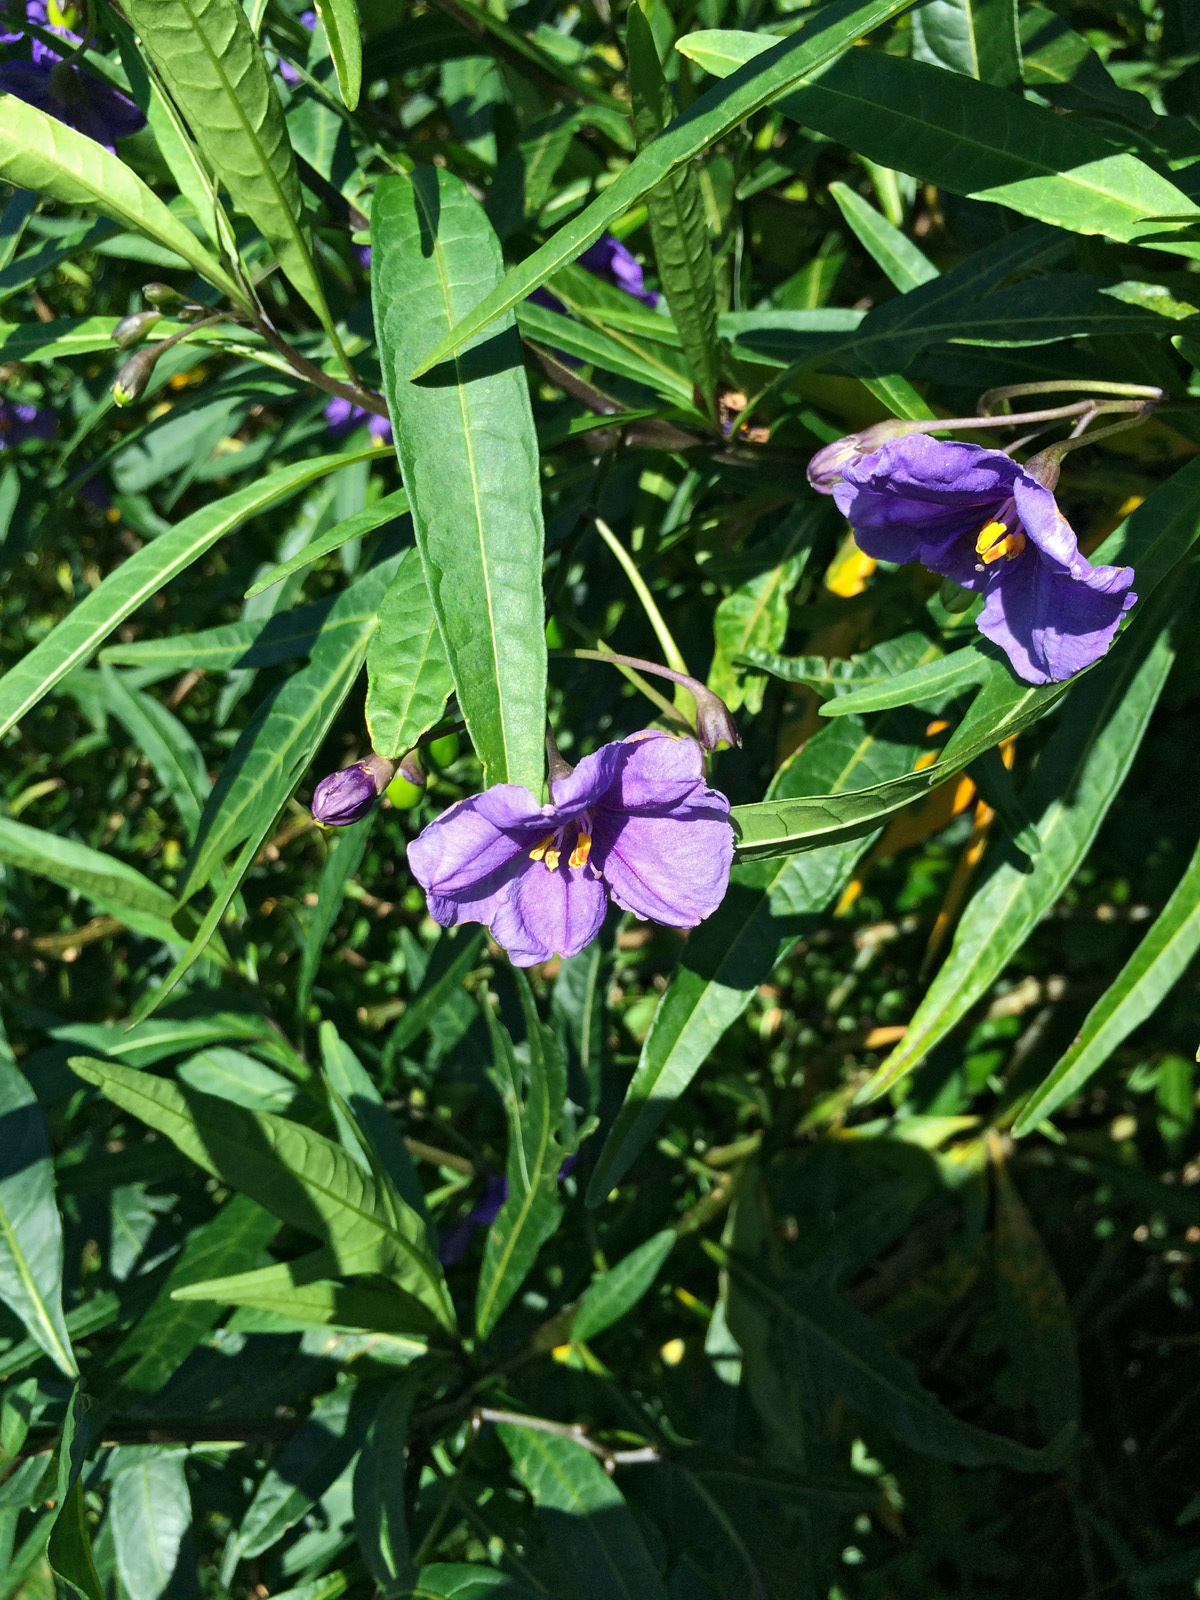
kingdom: Plantae
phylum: Tracheophyta
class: Magnoliopsida
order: Solanales
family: Solanaceae
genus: Solanum
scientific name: Solanum laciniatum
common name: Kangaroo-apple
